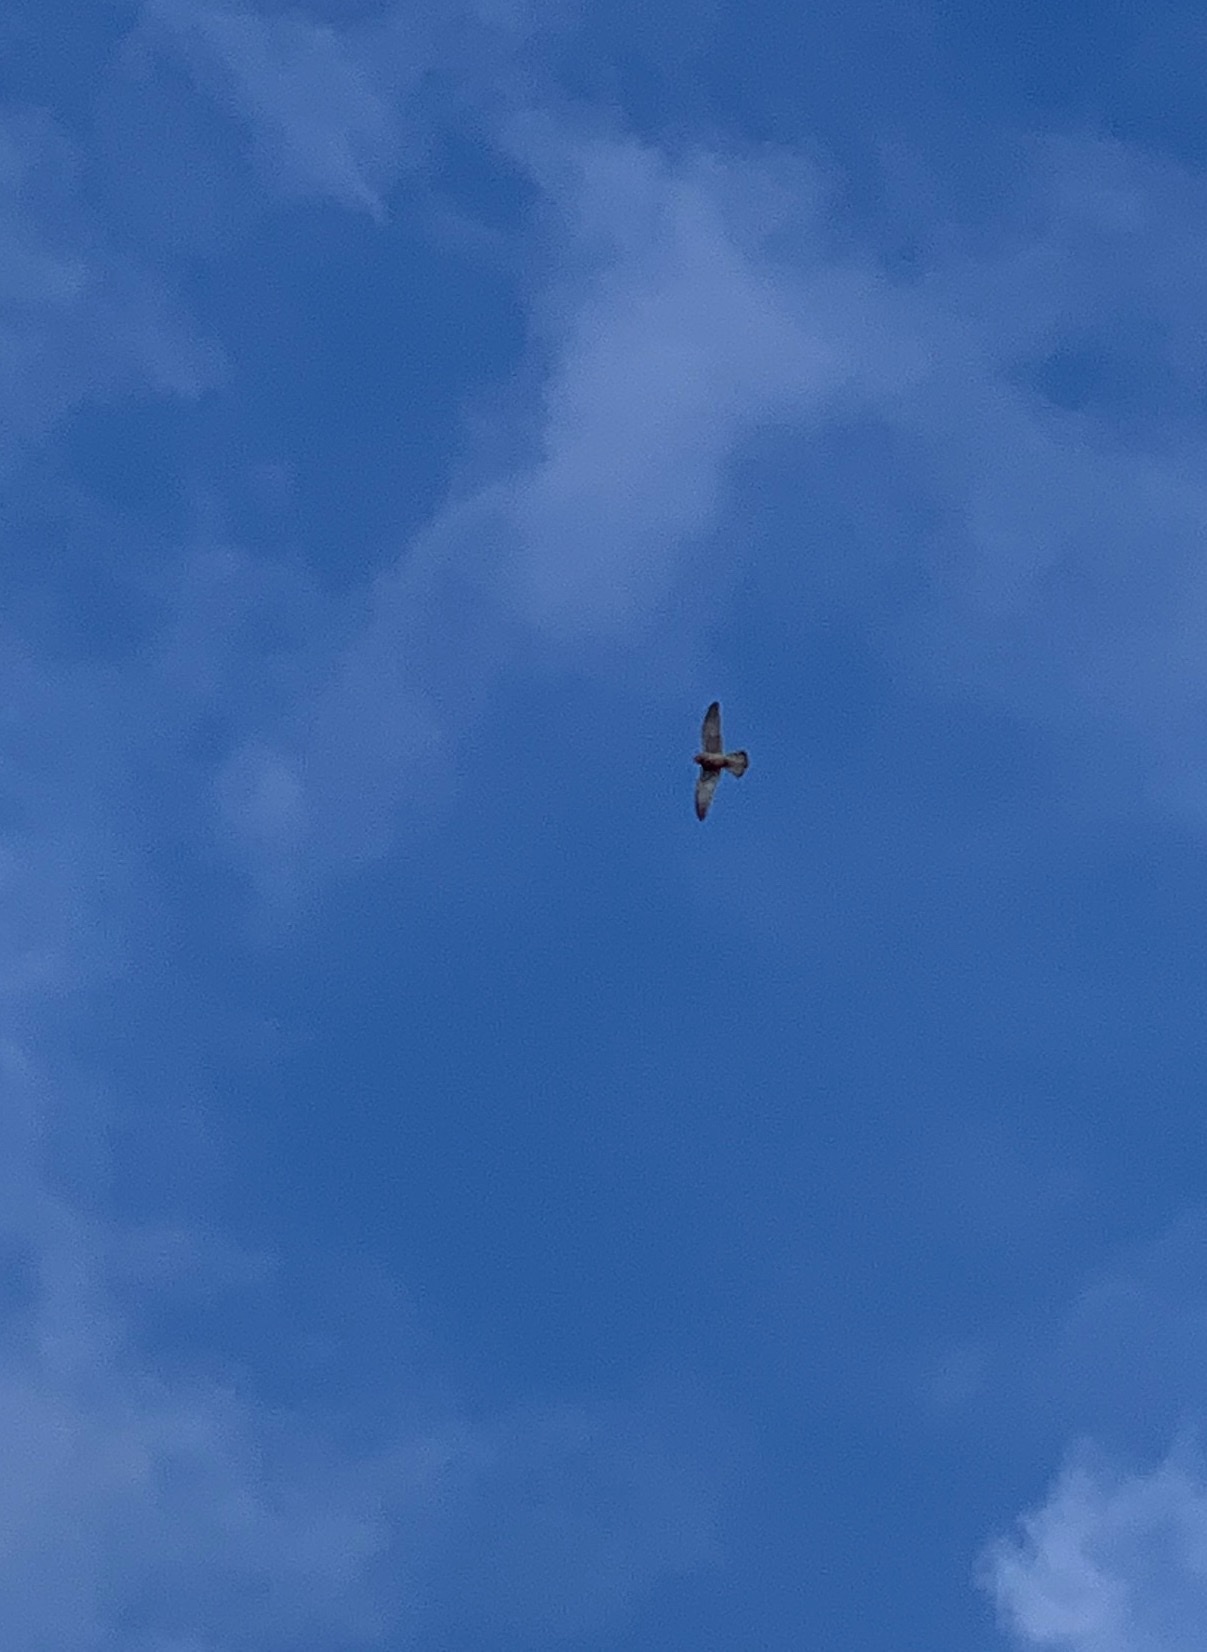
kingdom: Animalia
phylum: Chordata
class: Aves
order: Falconiformes
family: Falconidae
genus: Falco
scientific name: Falco tinnunculus
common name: Common kestrel
